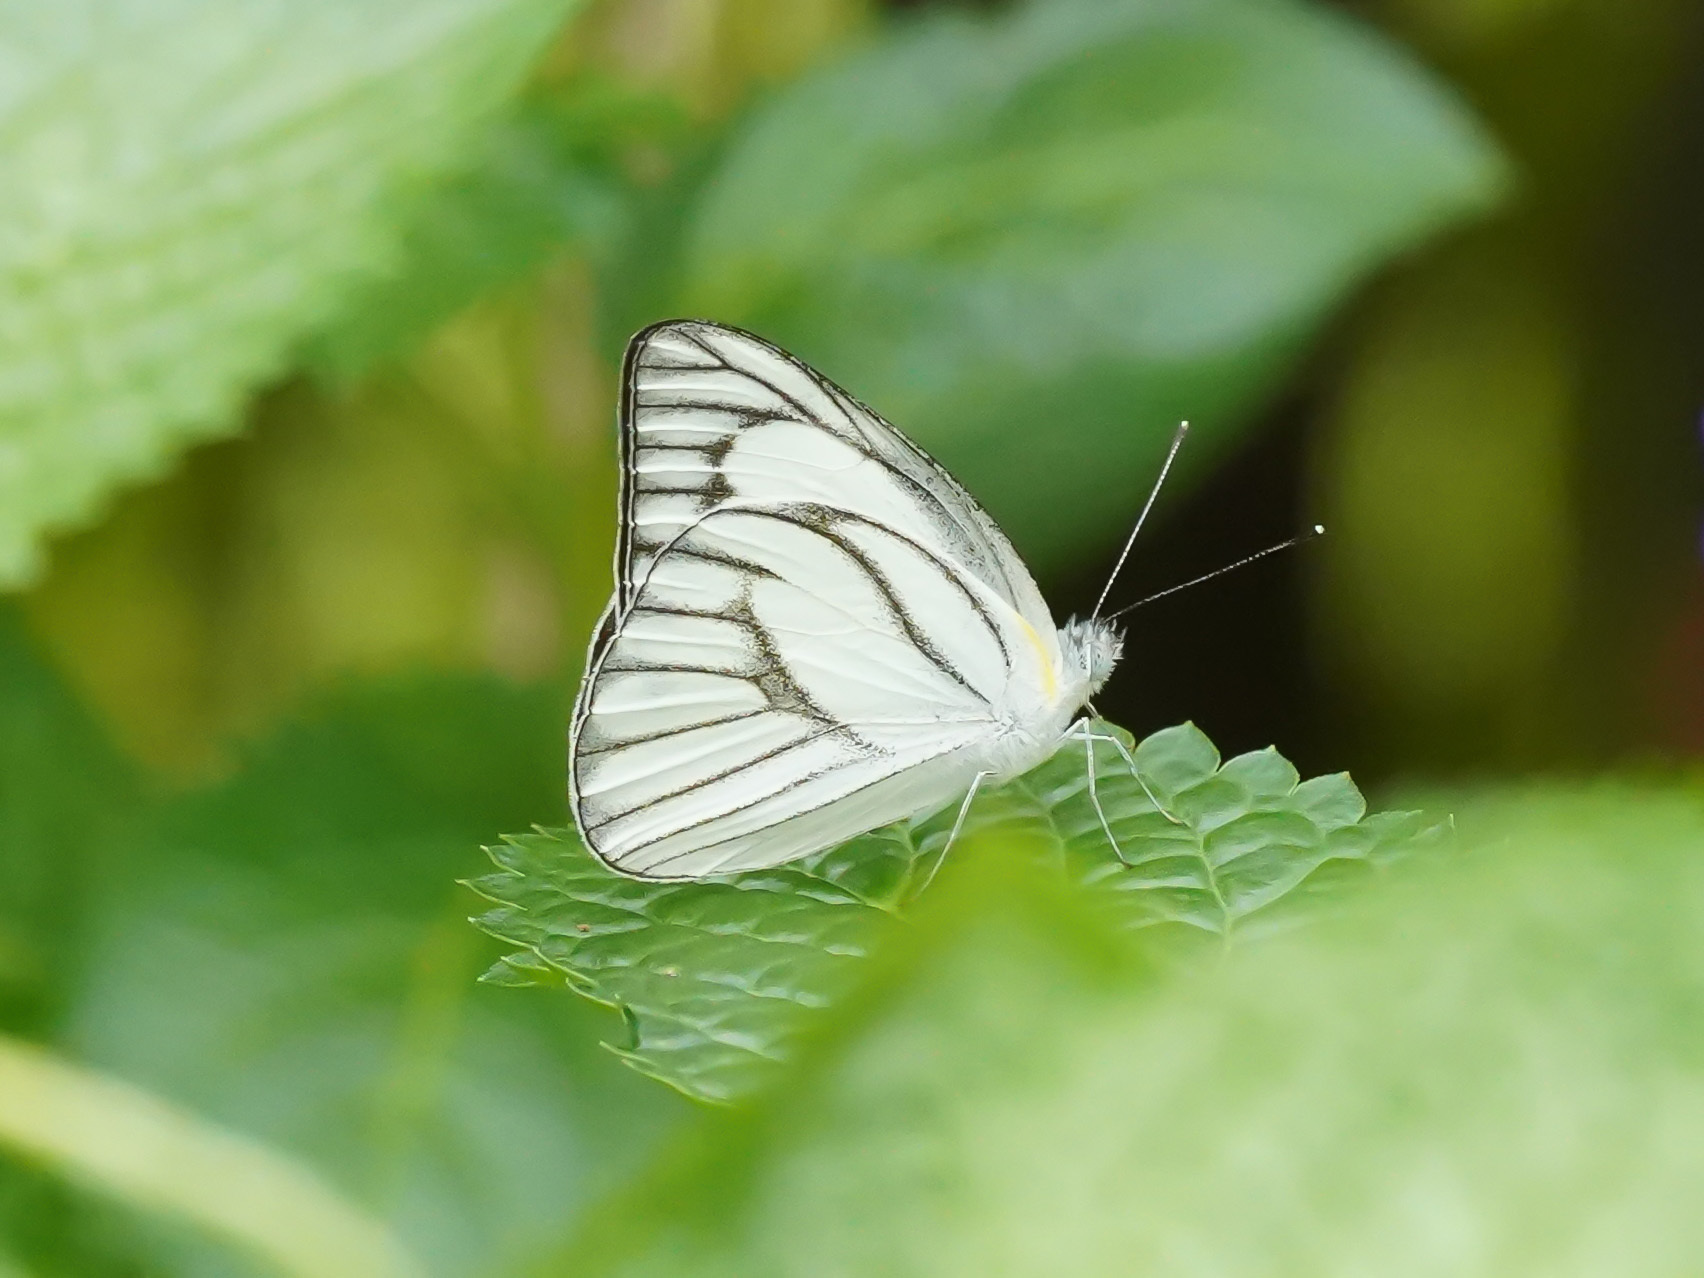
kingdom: Animalia
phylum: Arthropoda
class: Insecta
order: Lepidoptera
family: Pieridae
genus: Appias
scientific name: Appias libythea
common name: Striped albatross
